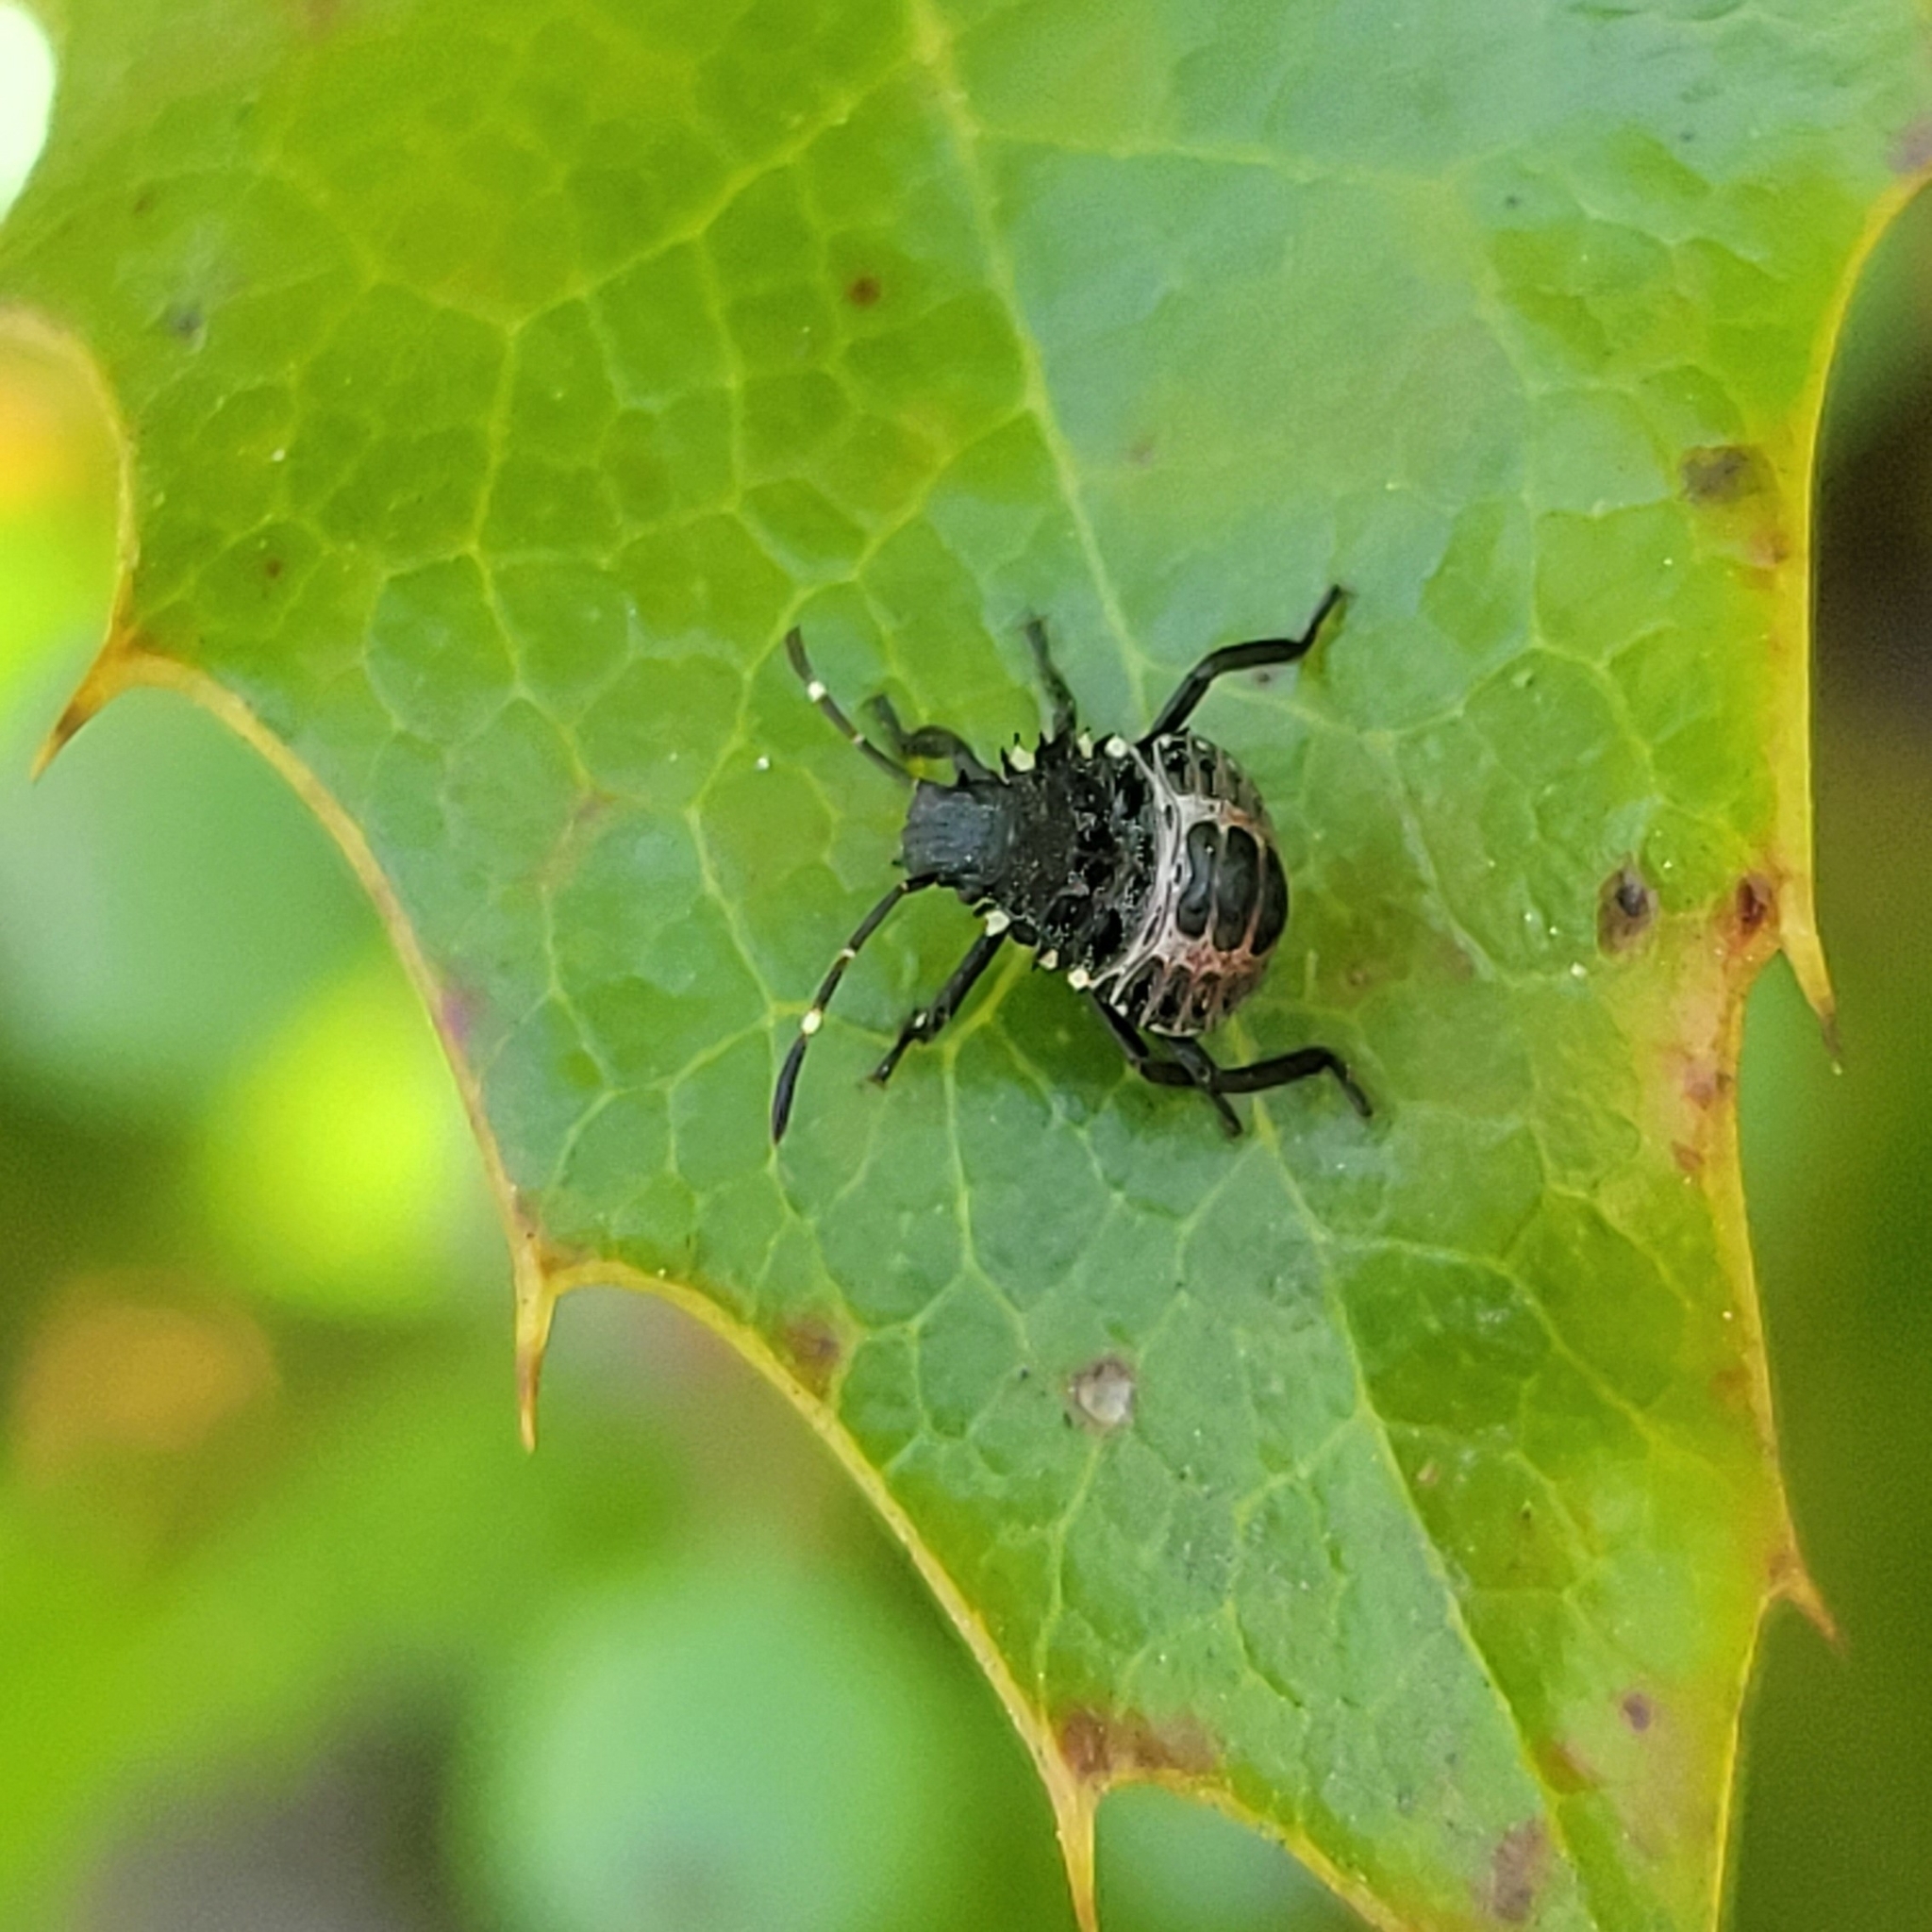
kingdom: Animalia
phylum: Arthropoda
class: Insecta
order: Hemiptera
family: Pentatomidae
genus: Halyomorpha
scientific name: Halyomorpha halys
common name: Brown marmorated stink bug
